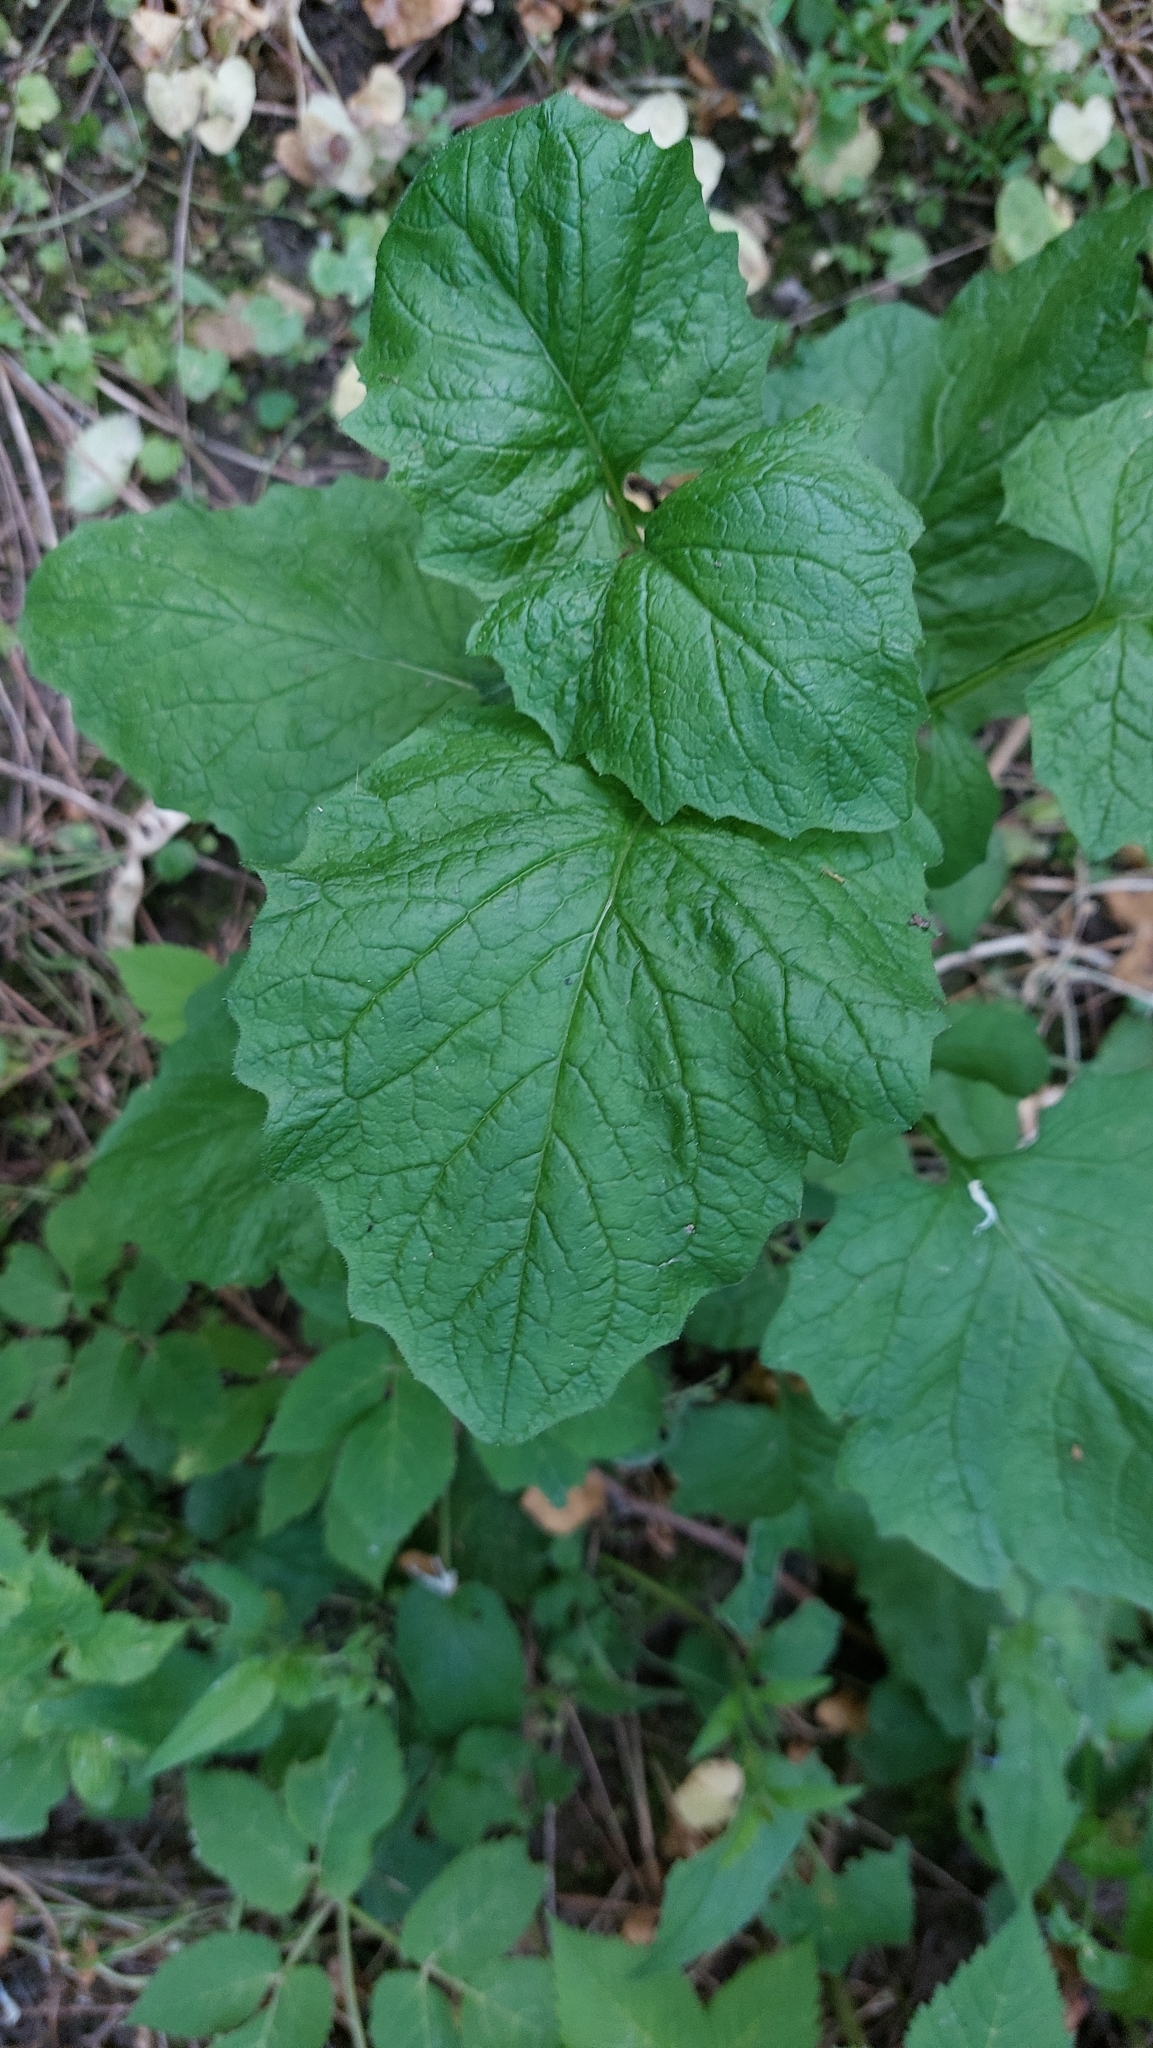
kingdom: Plantae
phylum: Tracheophyta
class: Magnoliopsida
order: Asterales
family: Asteraceae
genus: Lapsana
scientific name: Lapsana communis
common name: Nipplewort
